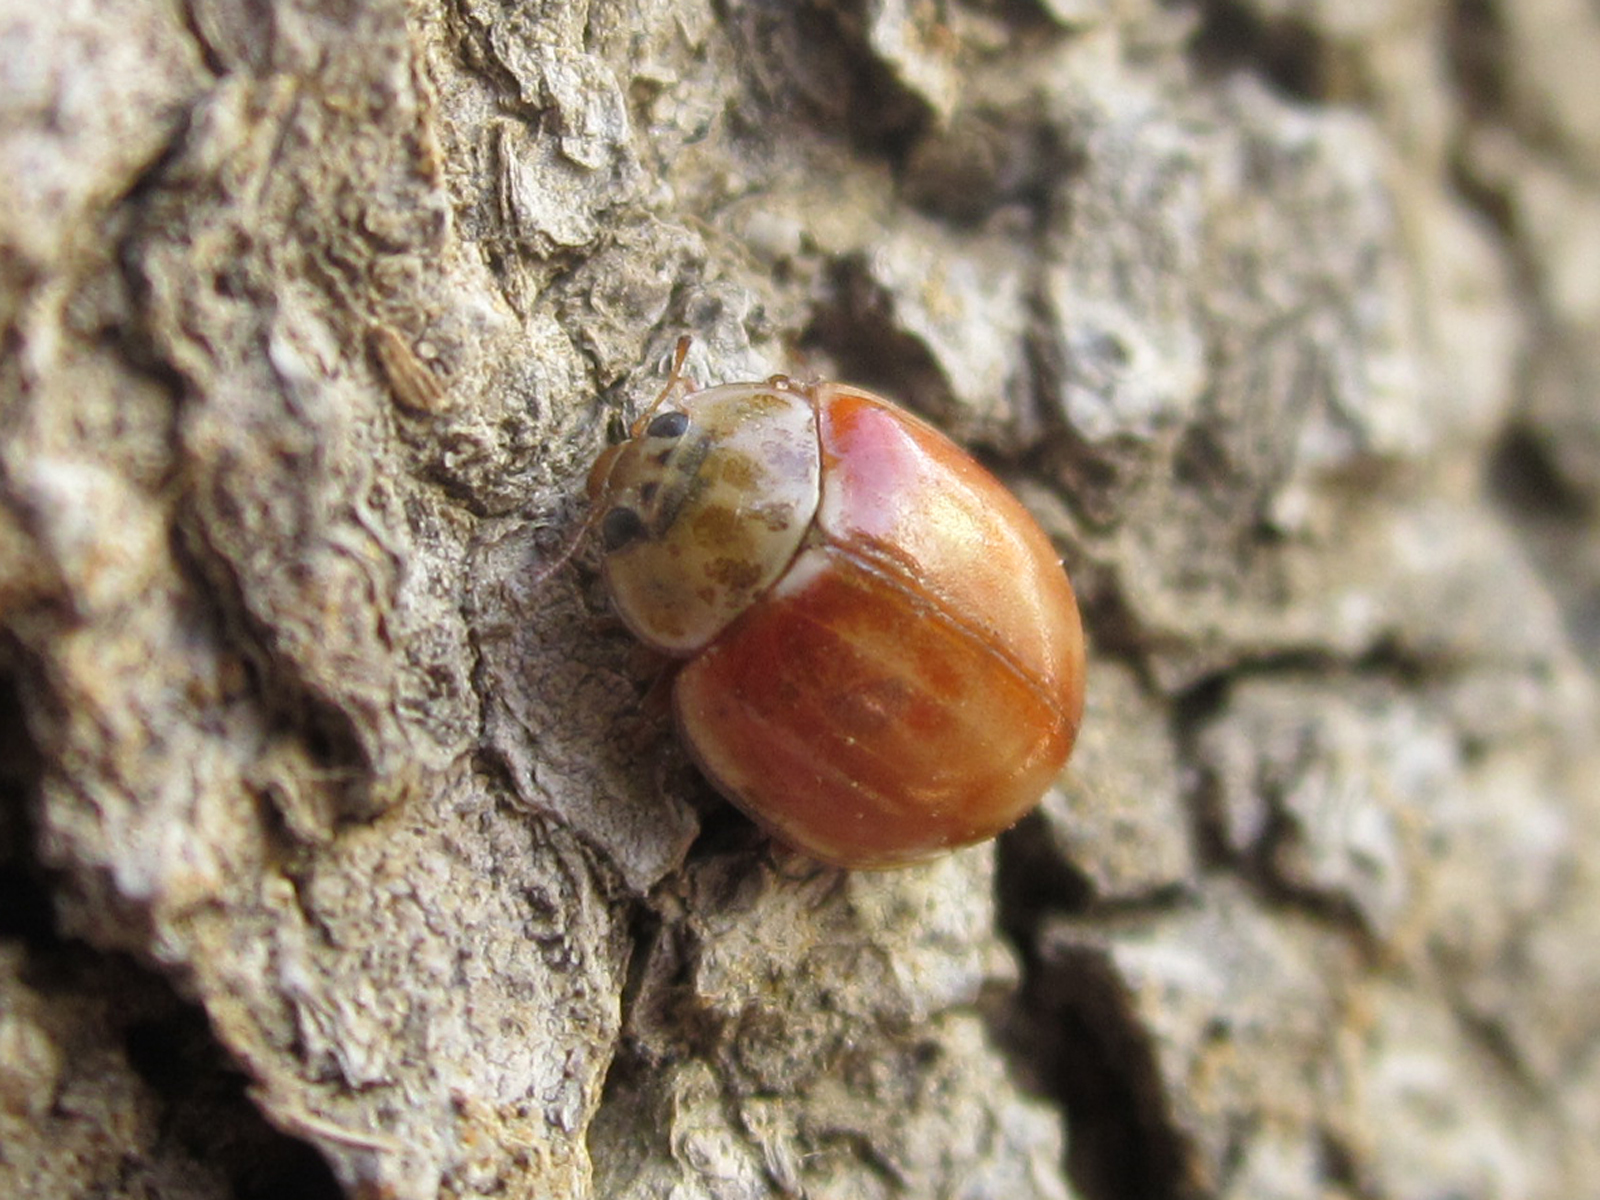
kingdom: Animalia
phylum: Arthropoda
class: Insecta
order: Coleoptera
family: Coccinellidae
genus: Harmonia
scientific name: Harmonia quadripunctata
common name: Cream-streaked ladybird
